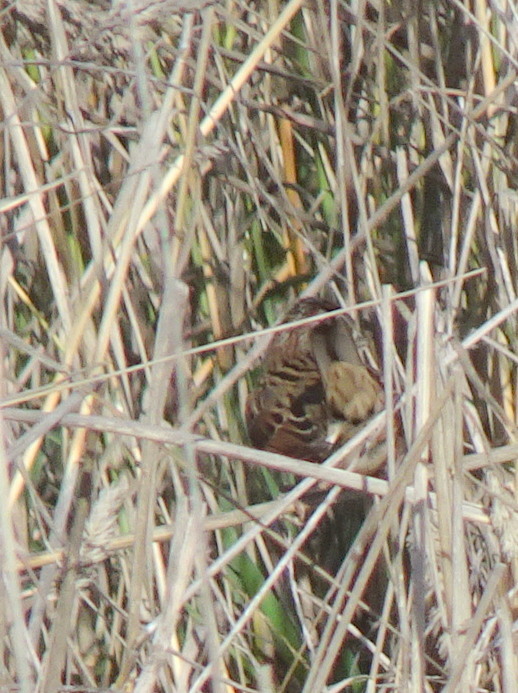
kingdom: Animalia
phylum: Chordata
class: Aves
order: Passeriformes
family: Passerellidae
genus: Melospiza
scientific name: Melospiza lincolnii
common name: Lincoln's sparrow
